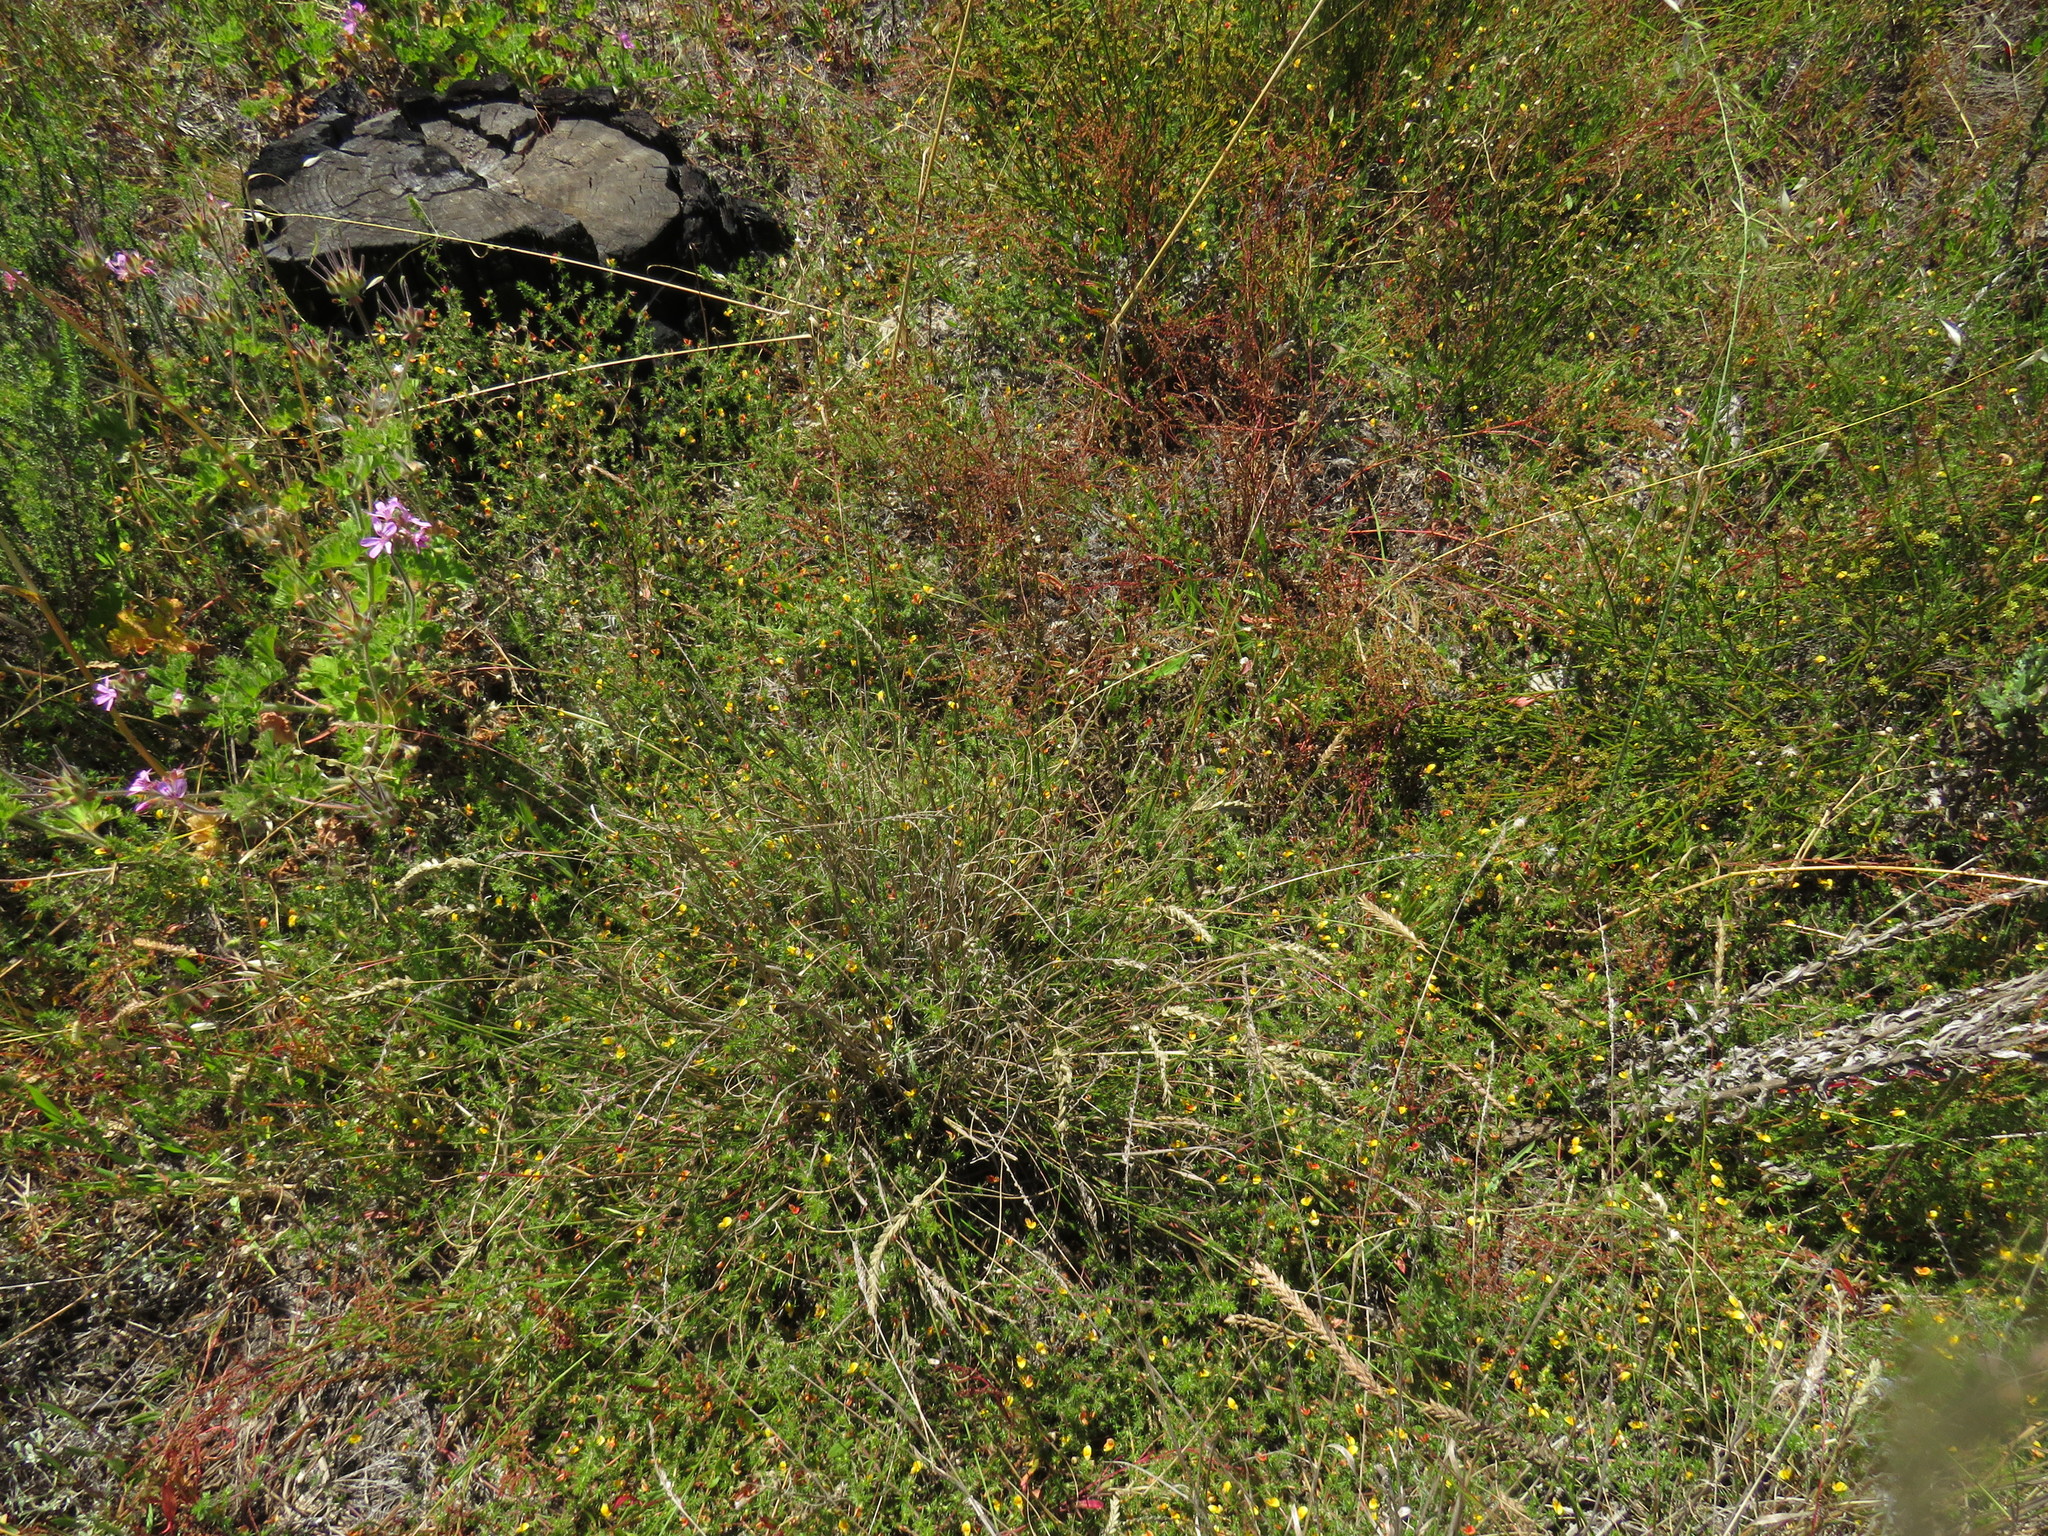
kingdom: Plantae
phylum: Tracheophyta
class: Magnoliopsida
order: Fabales
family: Fabaceae
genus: Aspalathus
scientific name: Aspalathus retroflexa
